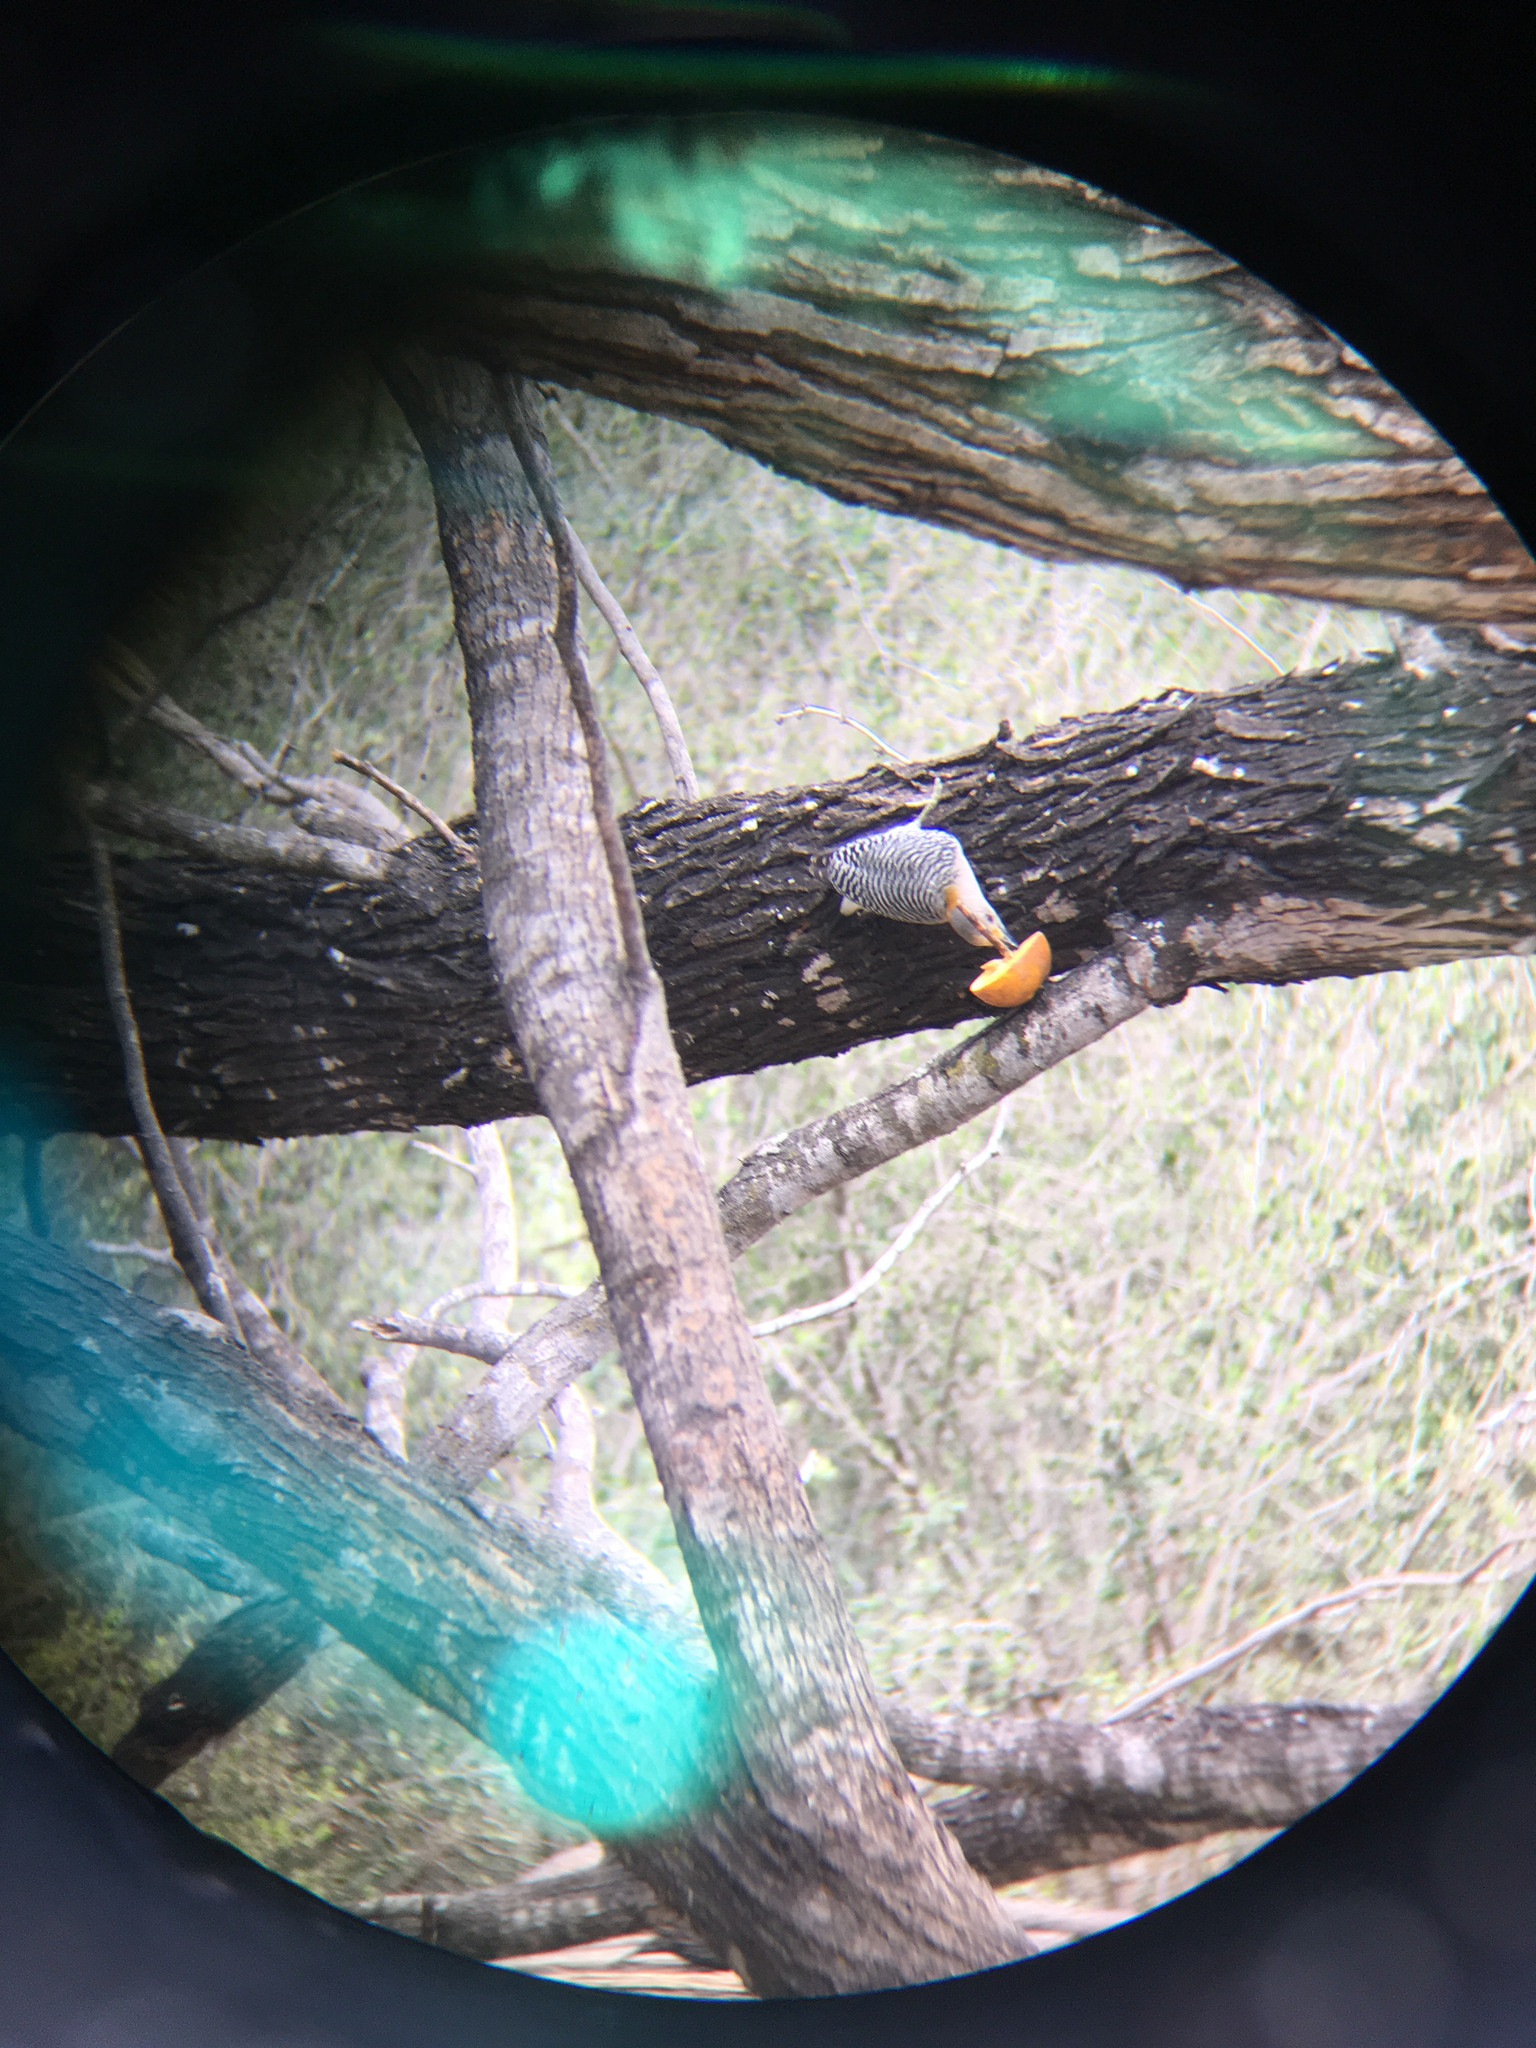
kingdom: Animalia
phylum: Chordata
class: Aves
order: Piciformes
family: Picidae
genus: Melanerpes
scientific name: Melanerpes aurifrons
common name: Golden-fronted woodpecker
